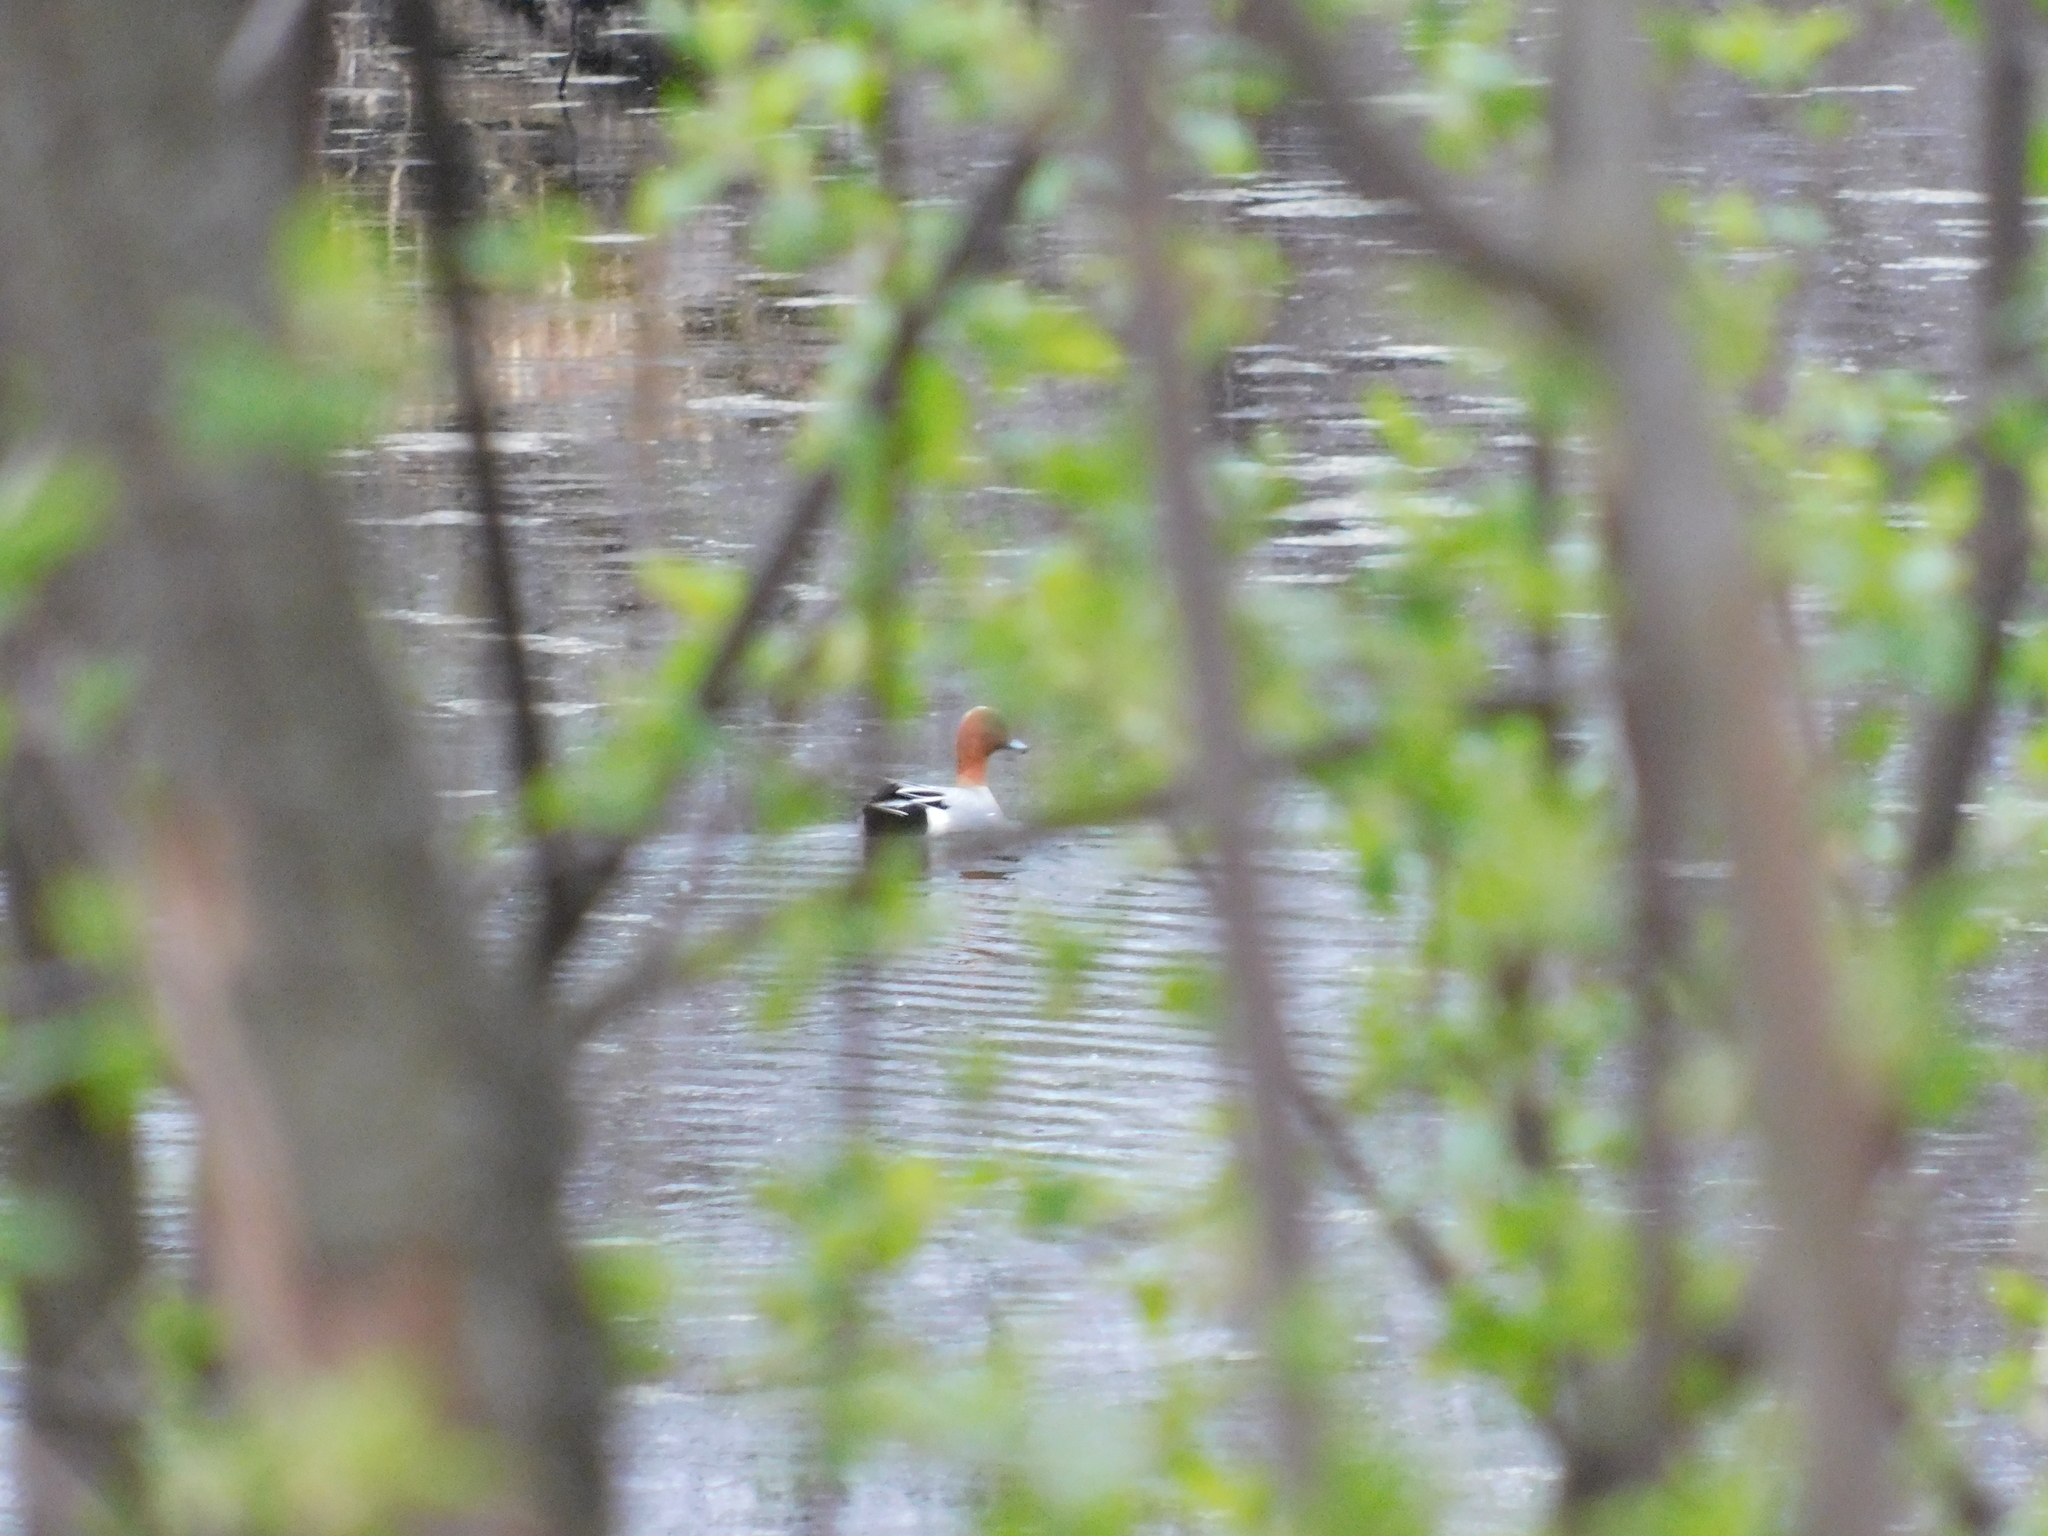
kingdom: Animalia
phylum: Chordata
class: Aves
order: Anseriformes
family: Anatidae
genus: Mareca
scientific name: Mareca penelope
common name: Eurasian wigeon
